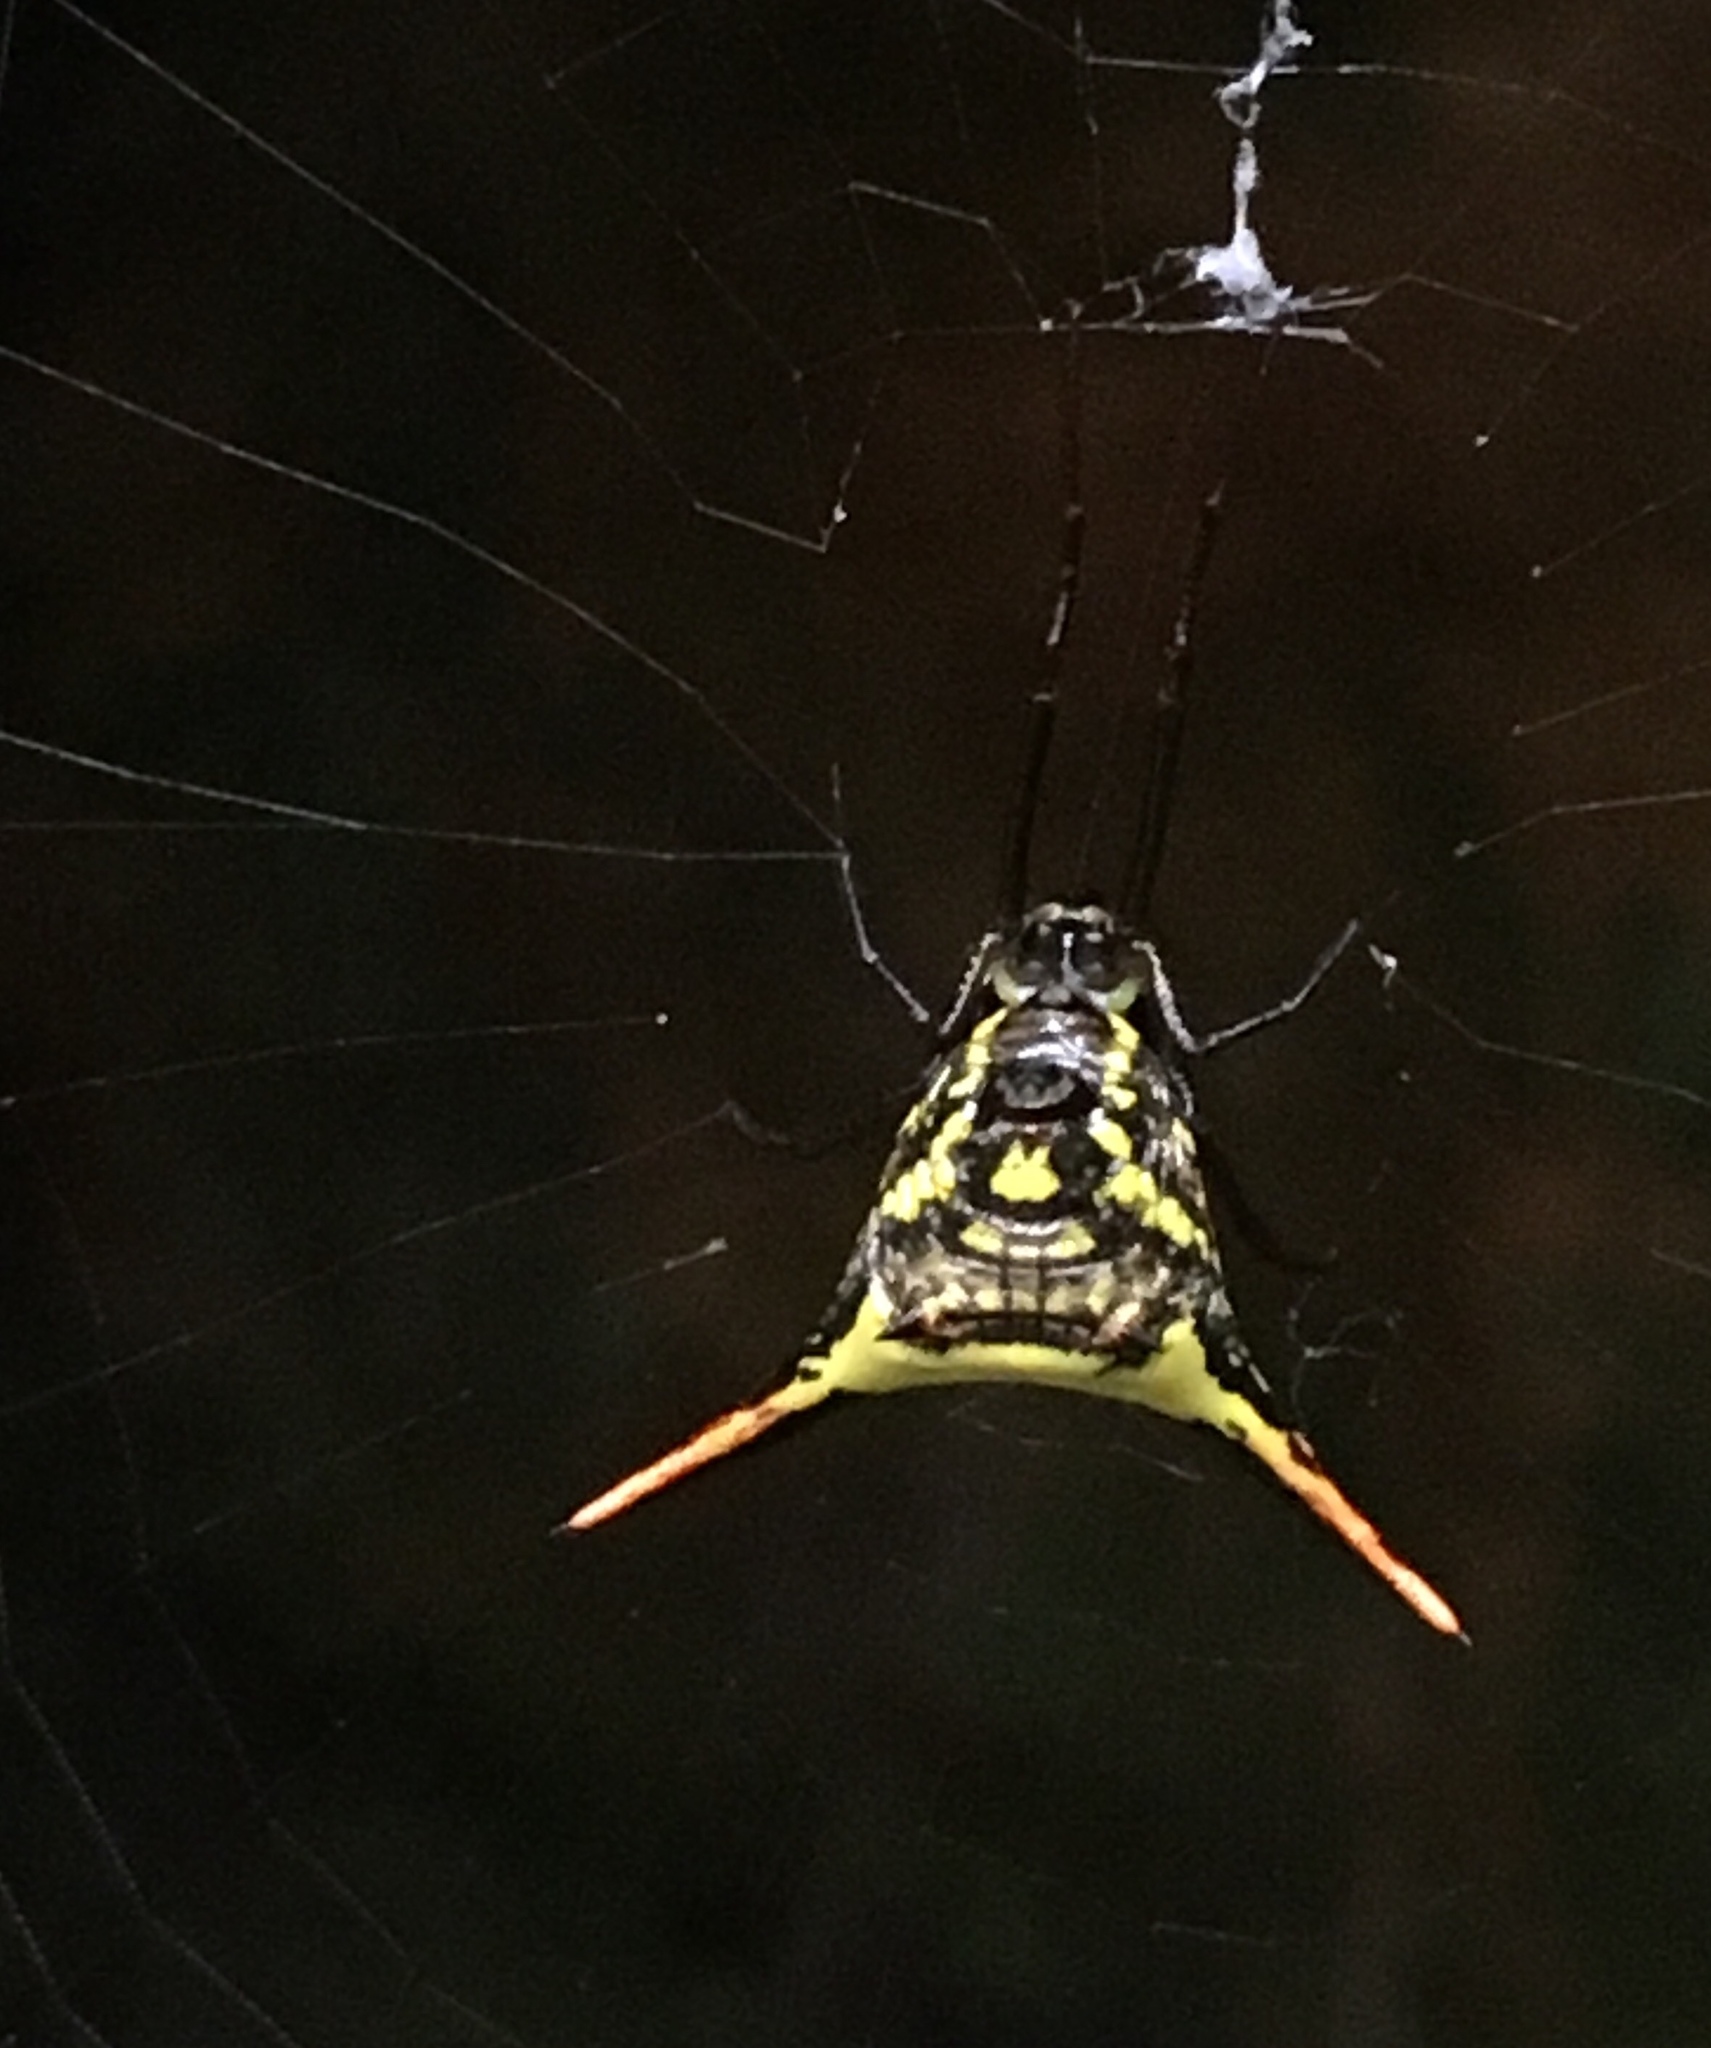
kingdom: Animalia
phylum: Arthropoda
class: Arachnida
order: Araneae
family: Araneidae
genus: Micrathena
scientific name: Micrathena
